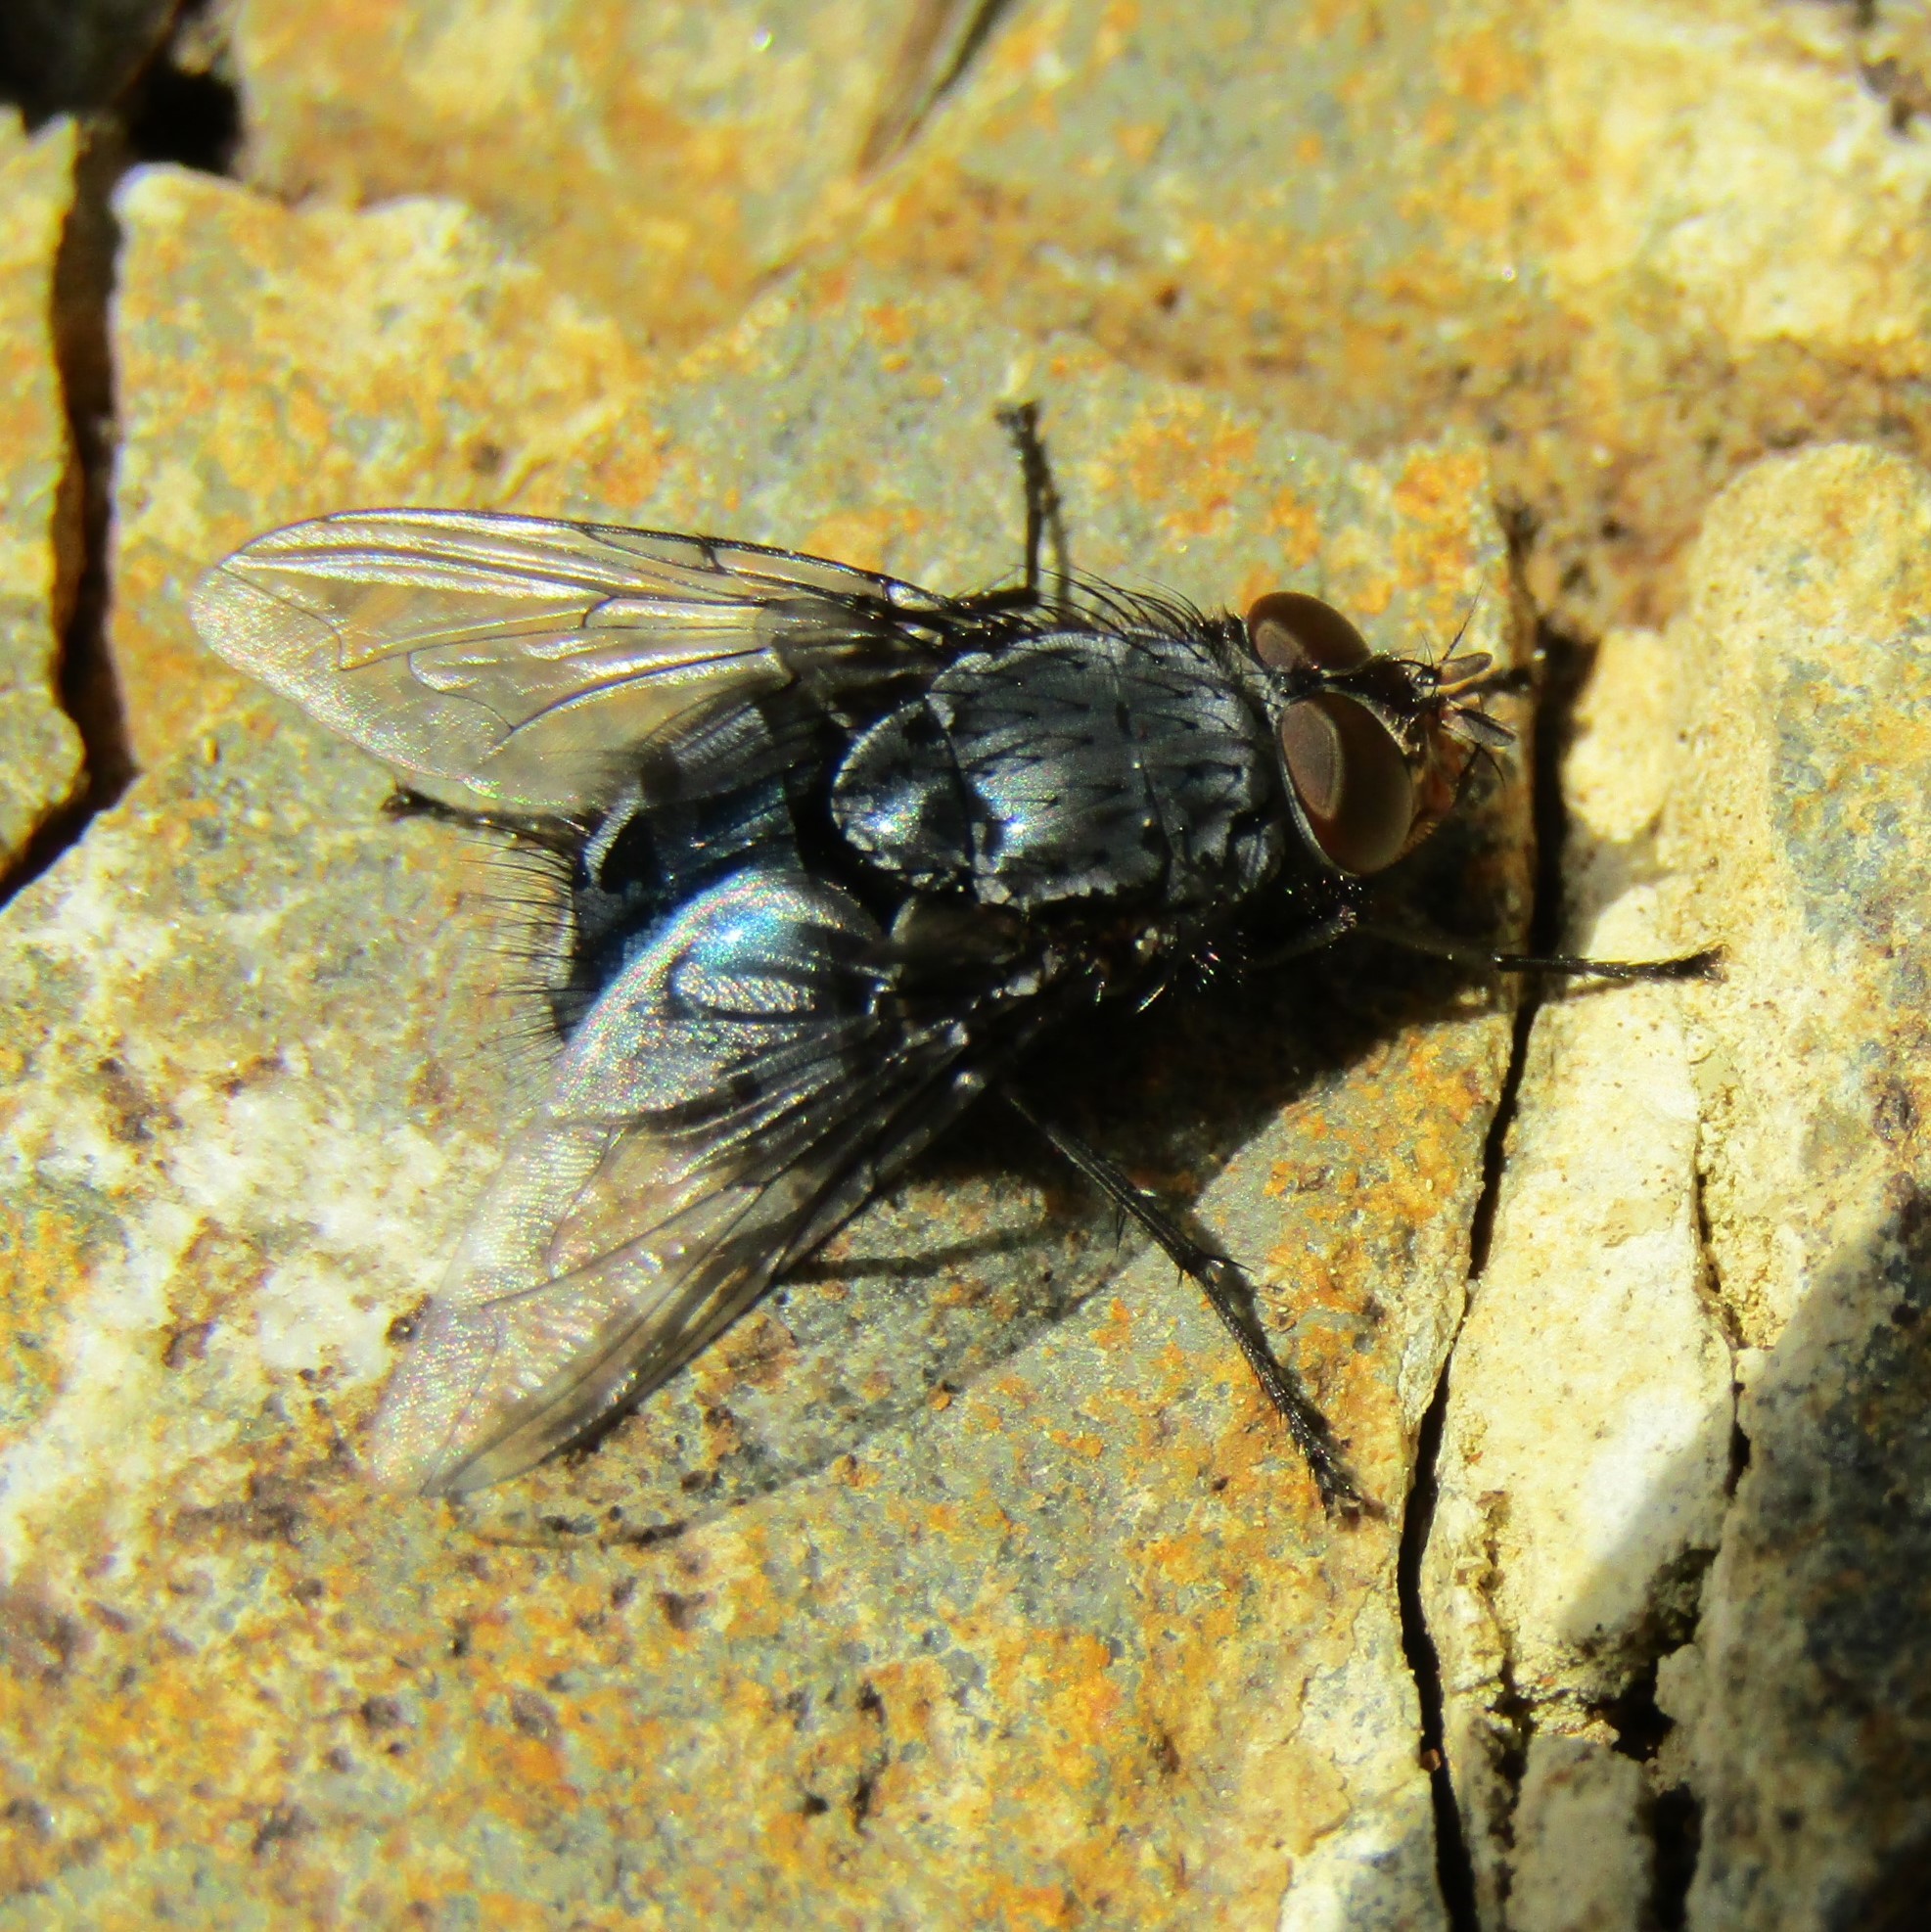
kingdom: Animalia
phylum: Arthropoda
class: Insecta
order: Diptera
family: Calliphoridae
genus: Calliphora
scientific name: Calliphora vicina
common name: Common blow flie
